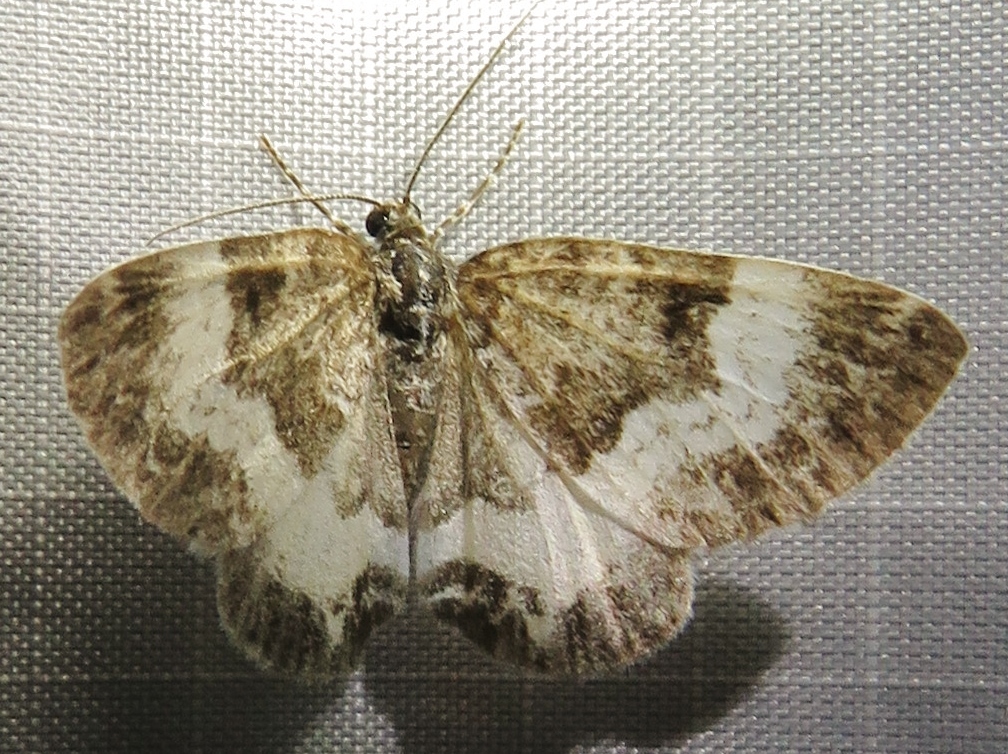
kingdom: Animalia
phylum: Arthropoda
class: Insecta
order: Lepidoptera
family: Geometridae
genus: Spargania
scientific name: Spargania luctuata
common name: White-banded carpet
